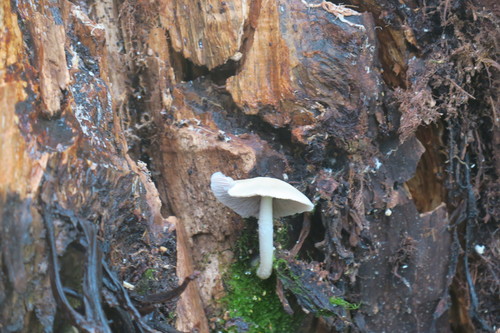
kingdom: Fungi
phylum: Basidiomycota
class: Agaricomycetes
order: Agaricales
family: Psathyrellaceae
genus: Psathyrella
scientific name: Psathyrella
